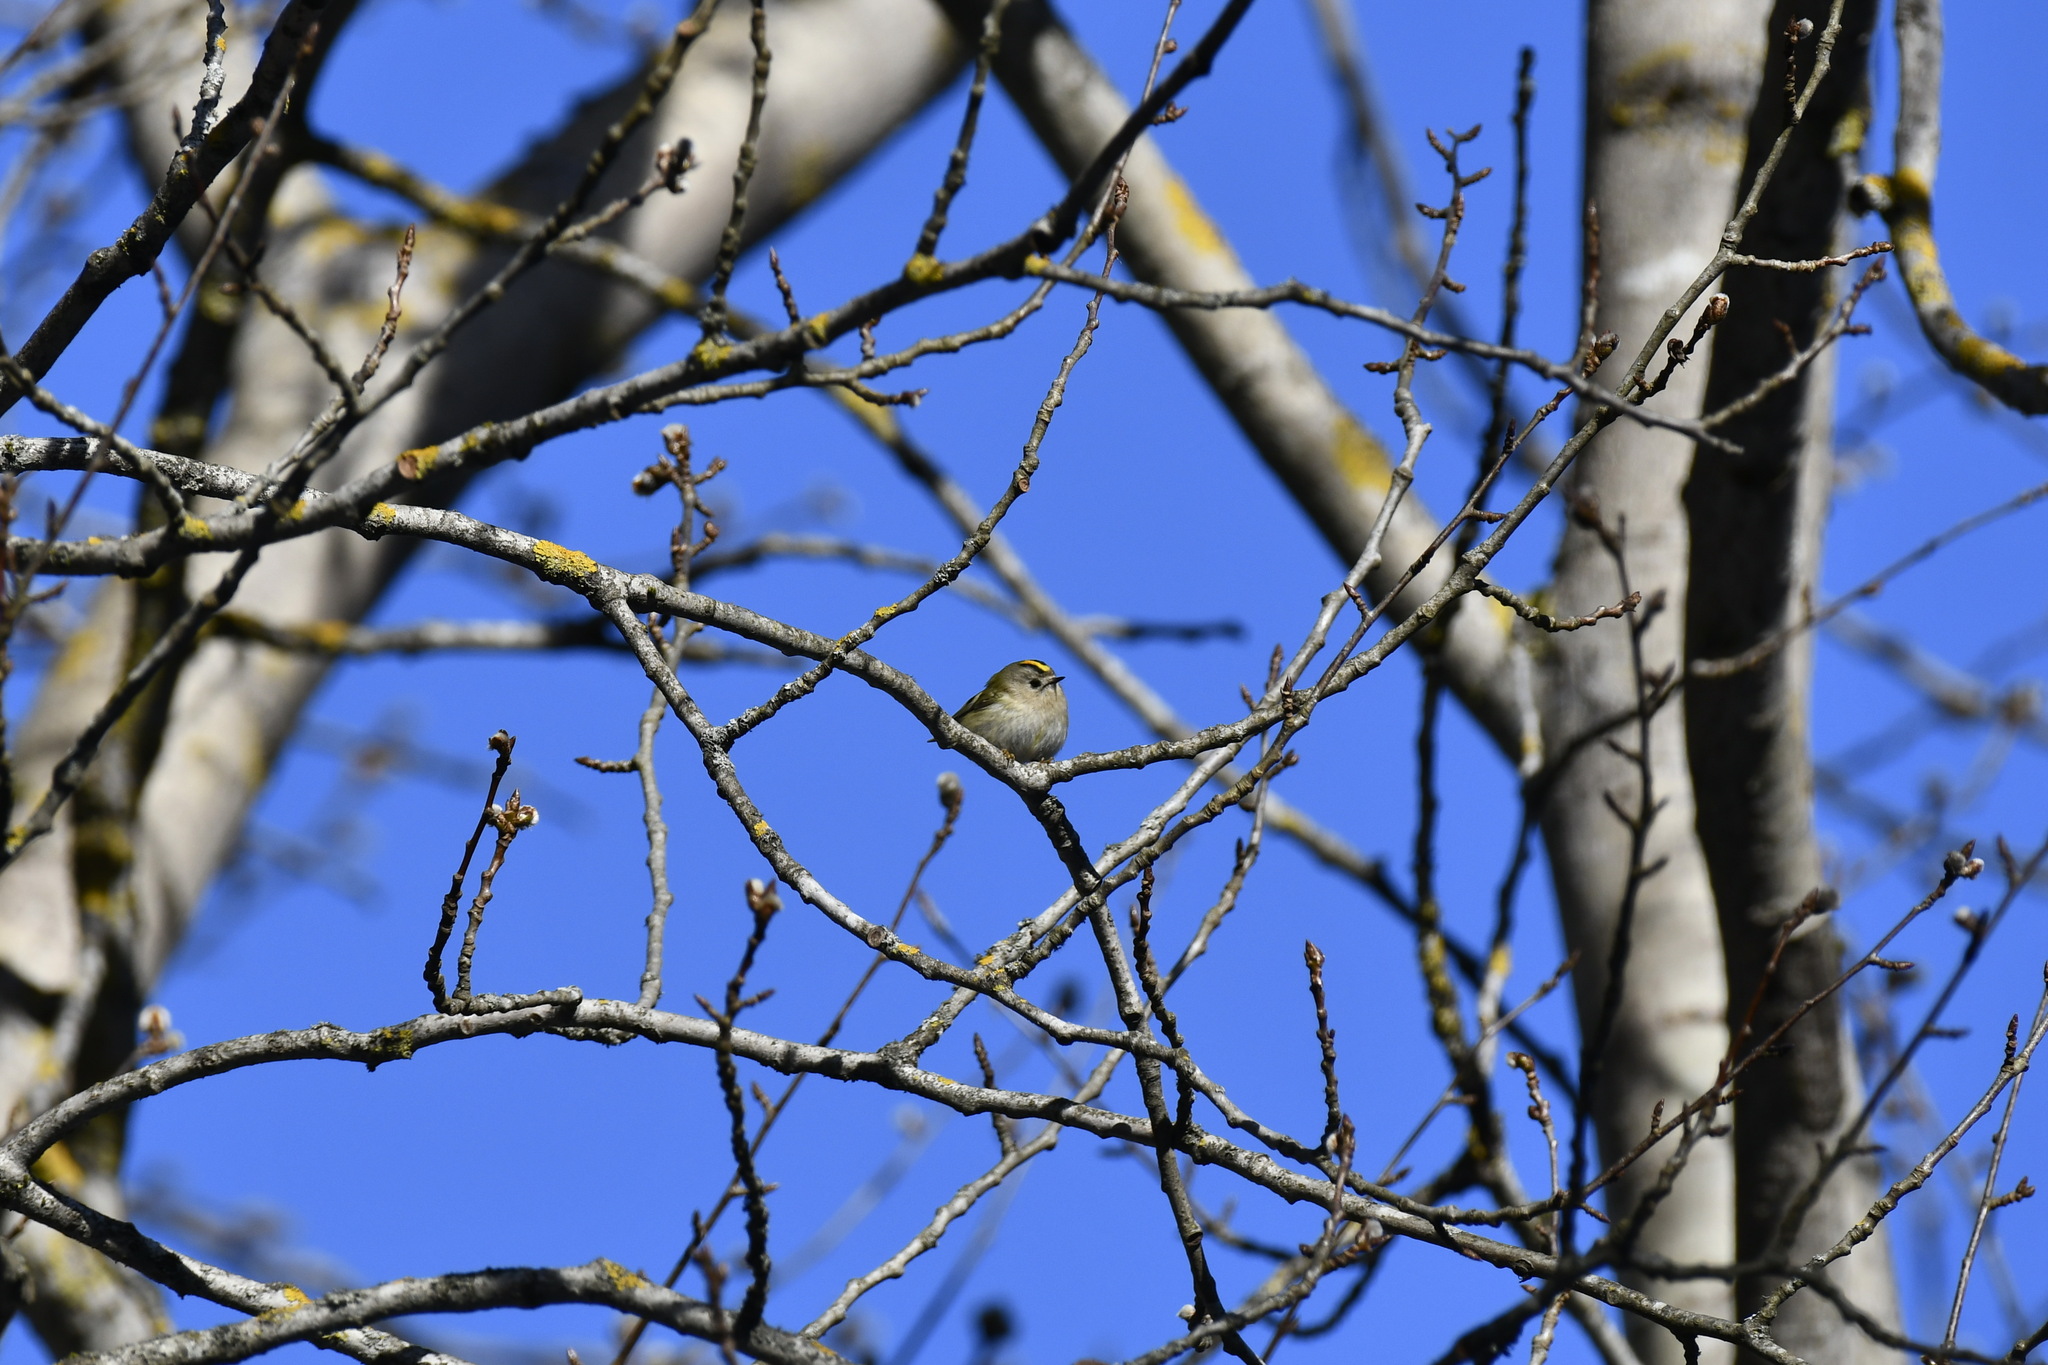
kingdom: Animalia
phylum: Chordata
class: Aves
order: Passeriformes
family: Regulidae
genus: Regulus
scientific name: Regulus regulus
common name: Goldcrest
